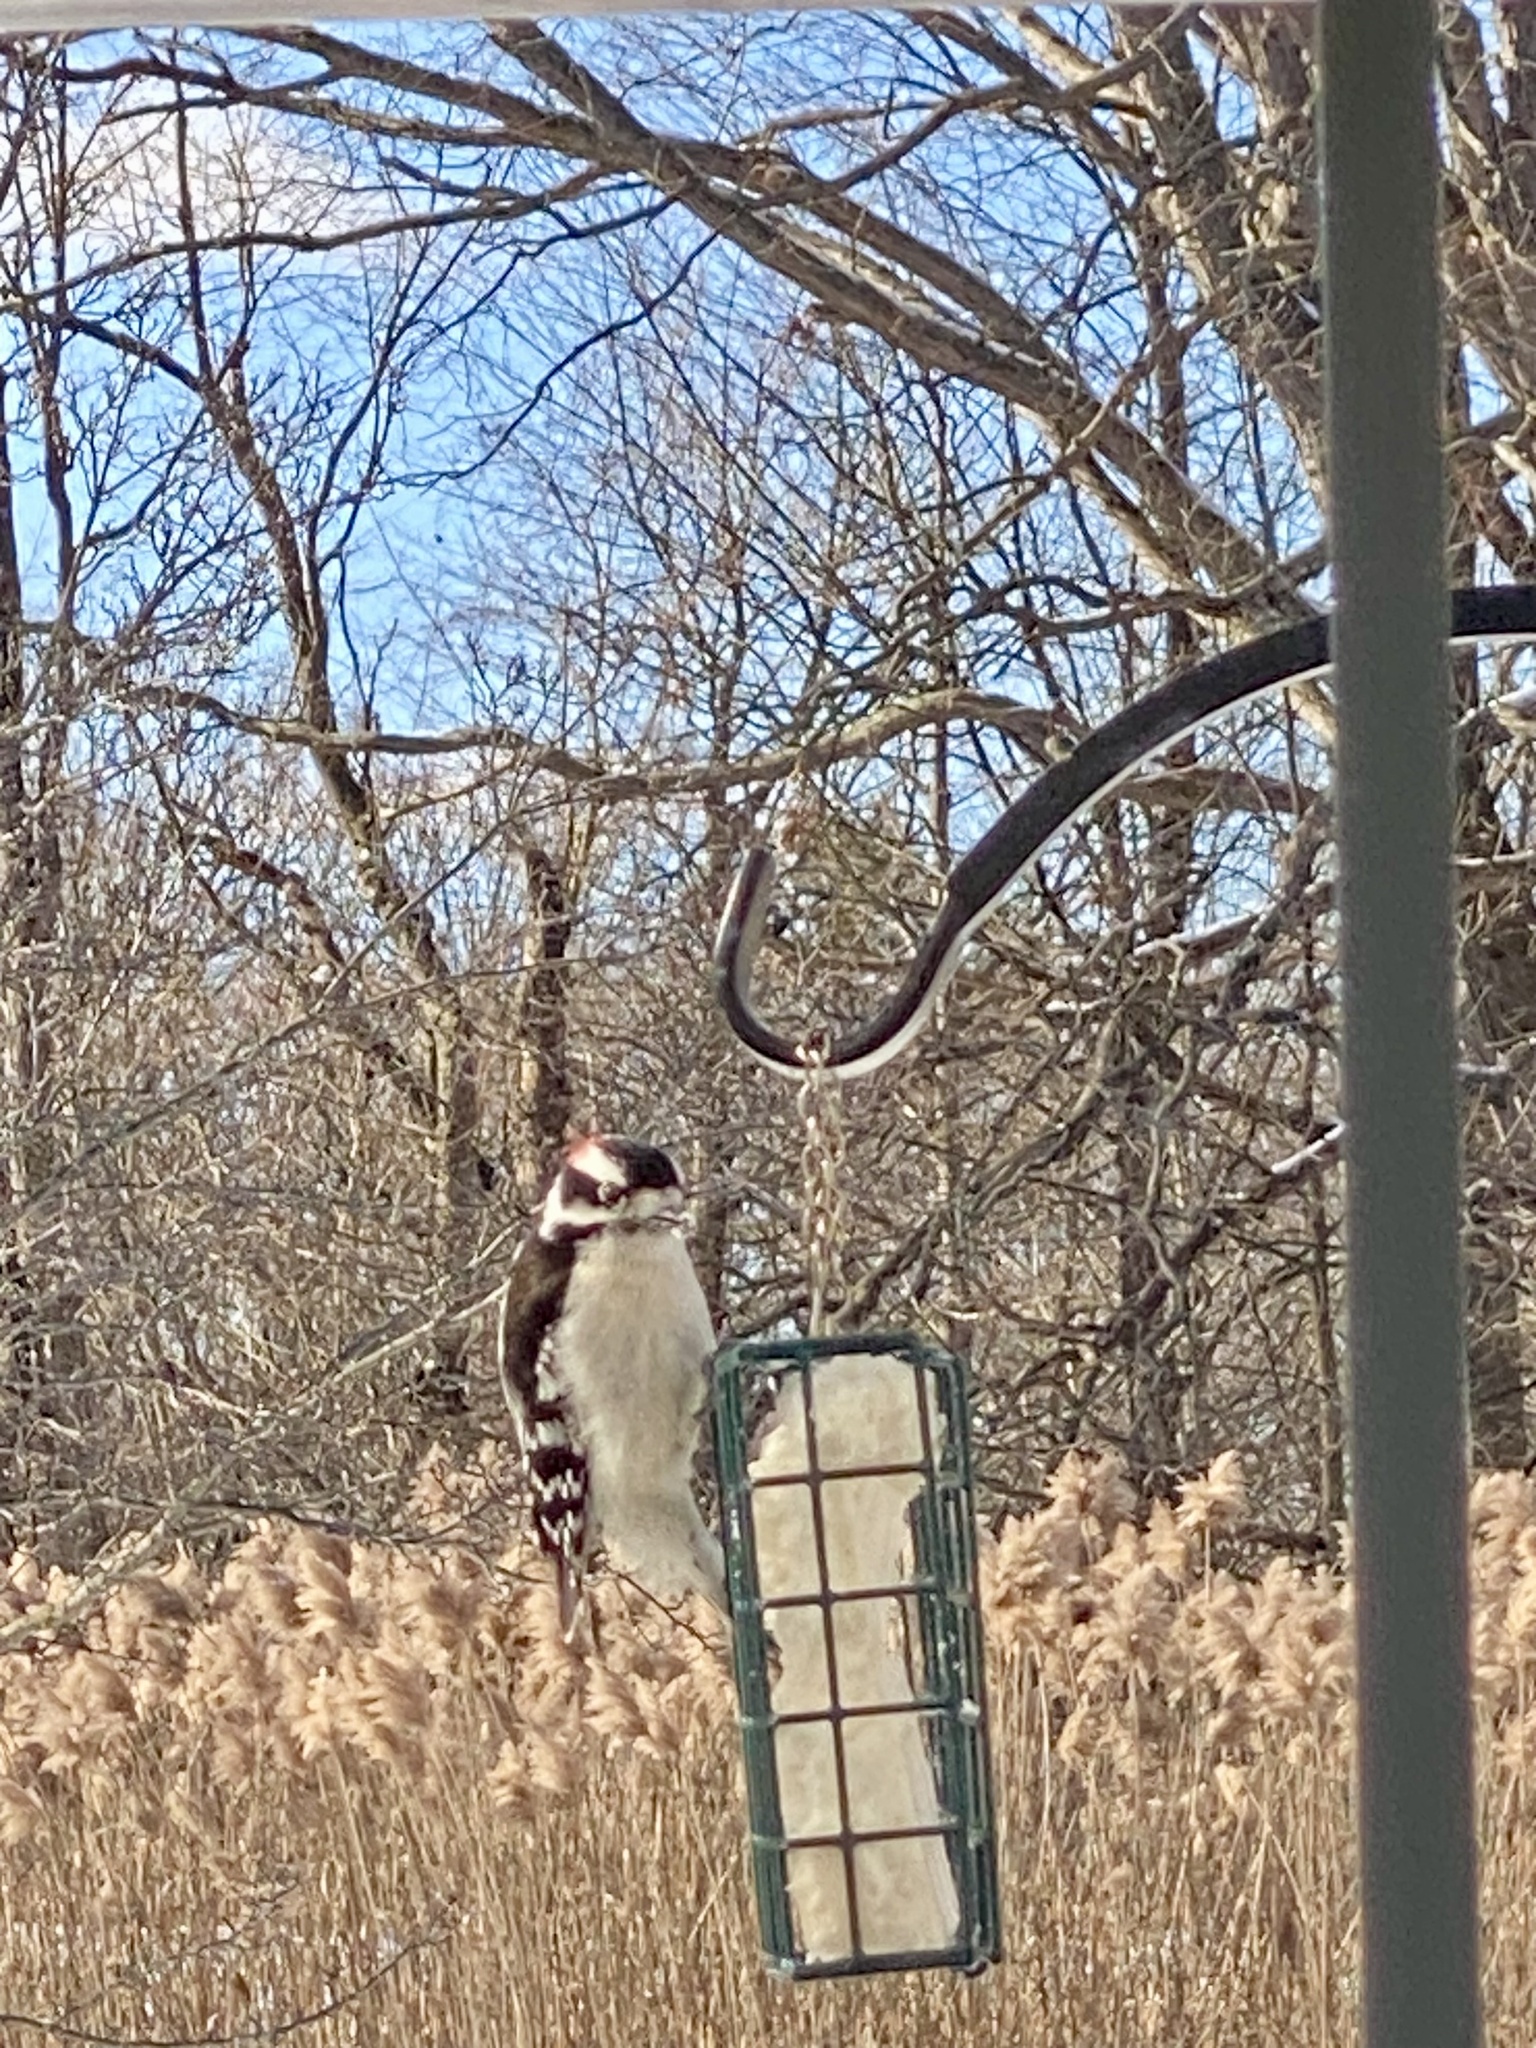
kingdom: Animalia
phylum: Chordata
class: Aves
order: Piciformes
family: Picidae
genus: Dryobates
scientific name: Dryobates pubescens
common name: Downy woodpecker
